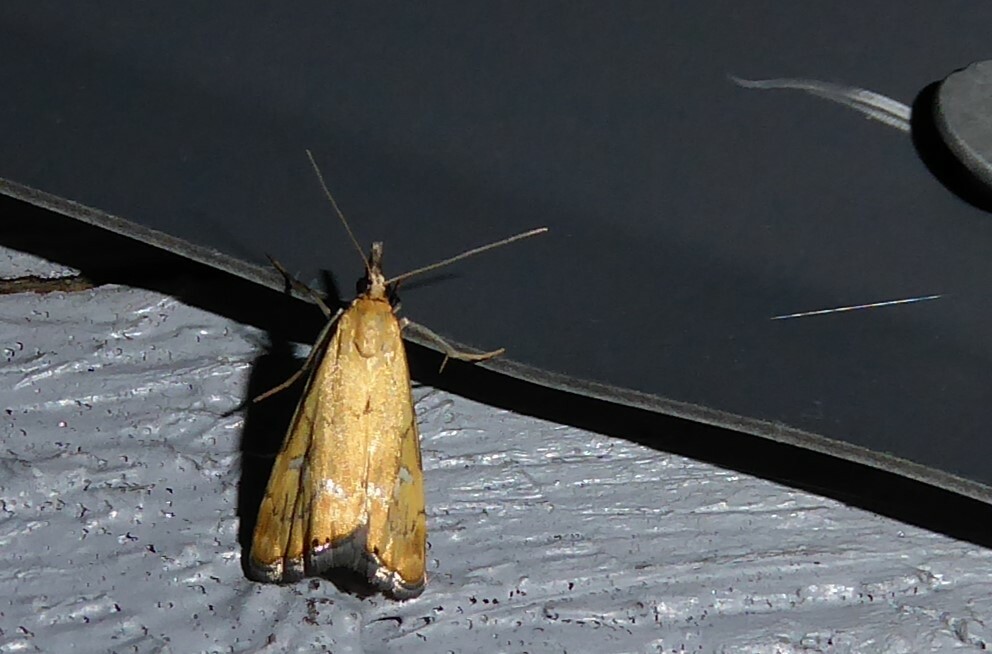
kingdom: Animalia
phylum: Arthropoda
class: Insecta
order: Lepidoptera
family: Crambidae
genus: Glaucocharis
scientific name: Glaucocharis lepidella
